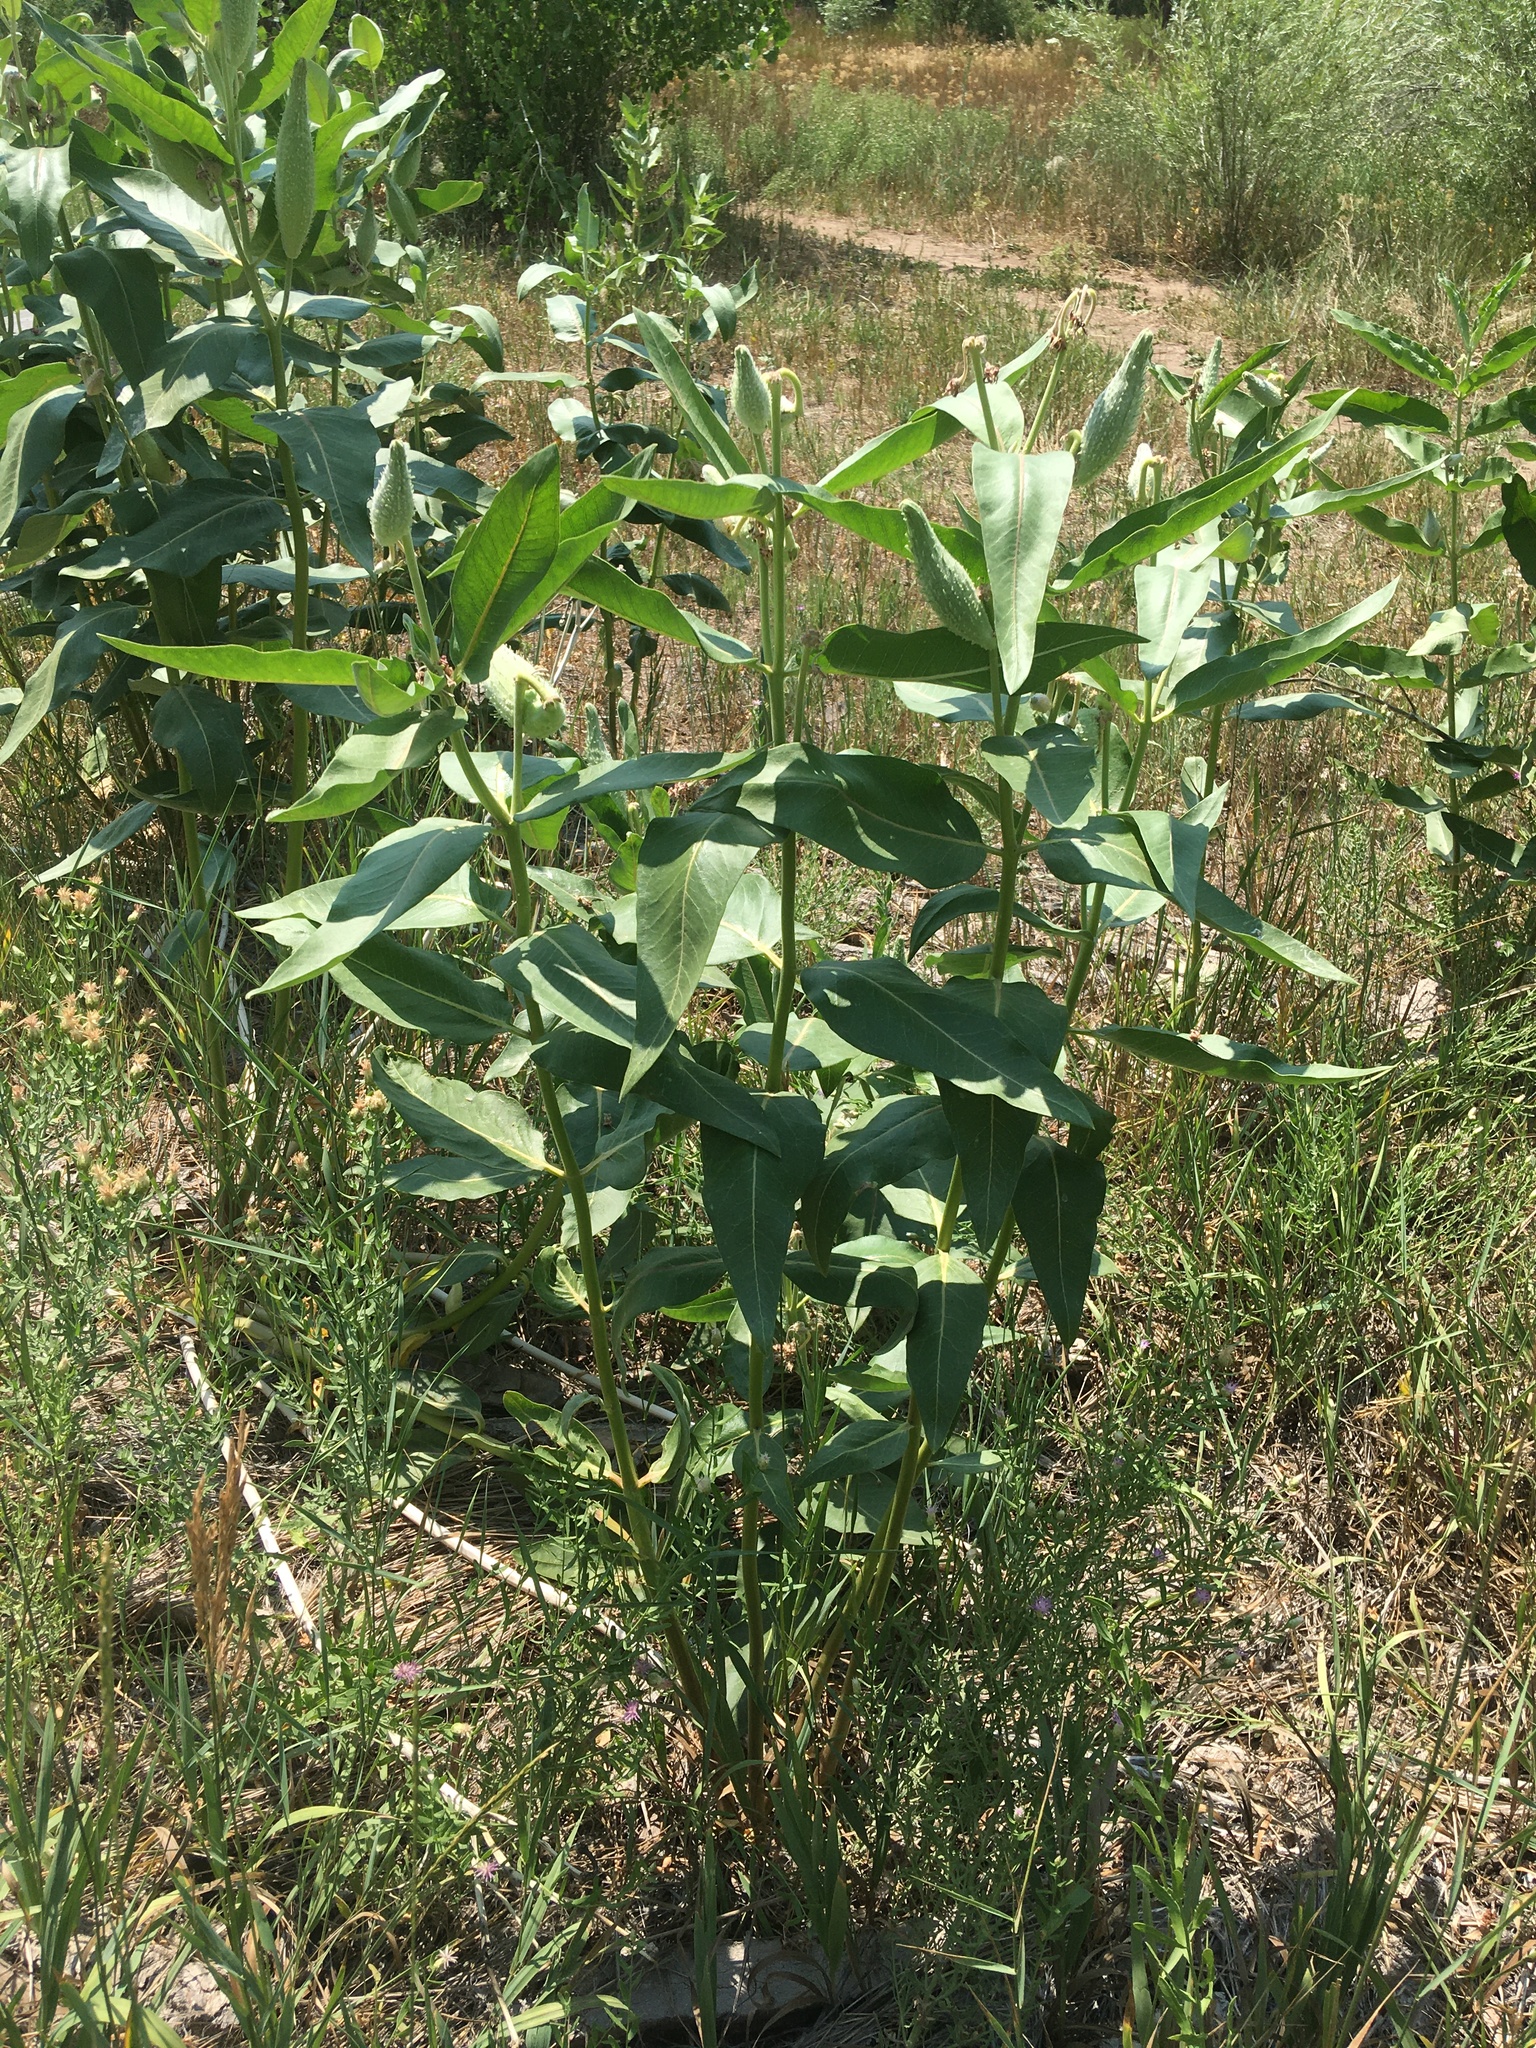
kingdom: Plantae
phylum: Tracheophyta
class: Magnoliopsida
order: Gentianales
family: Apocynaceae
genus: Asclepias
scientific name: Asclepias speciosa
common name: Showy milkweed
